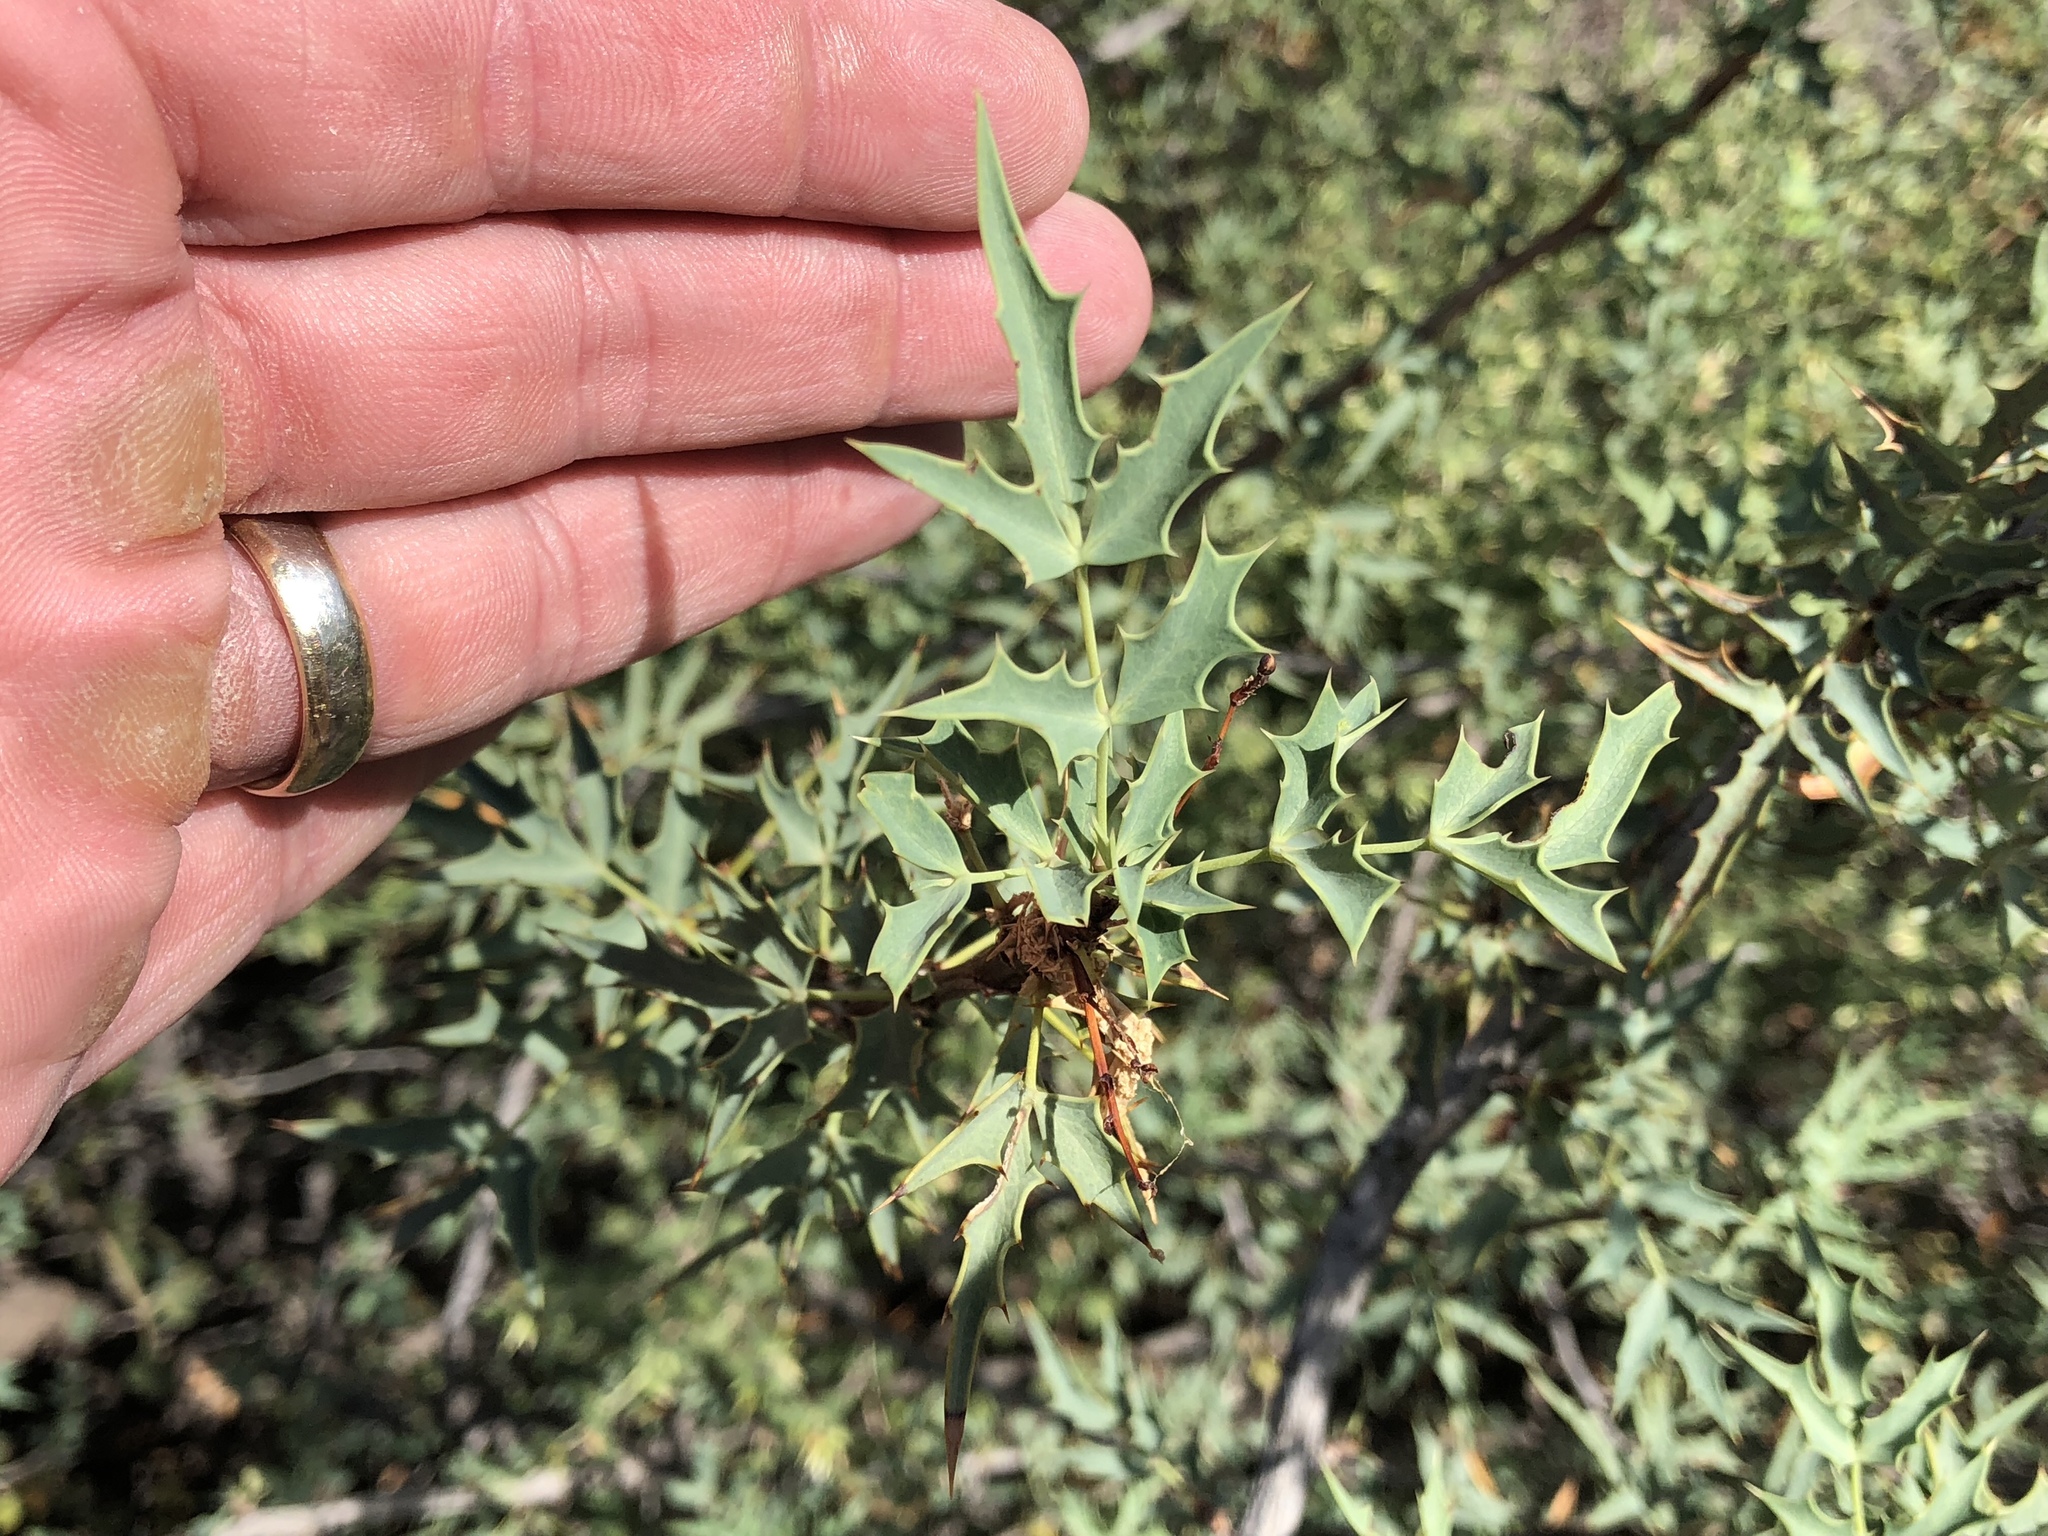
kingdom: Plantae
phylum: Tracheophyta
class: Magnoliopsida
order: Ranunculales
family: Berberidaceae
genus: Alloberberis
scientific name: Alloberberis haematocarpa
